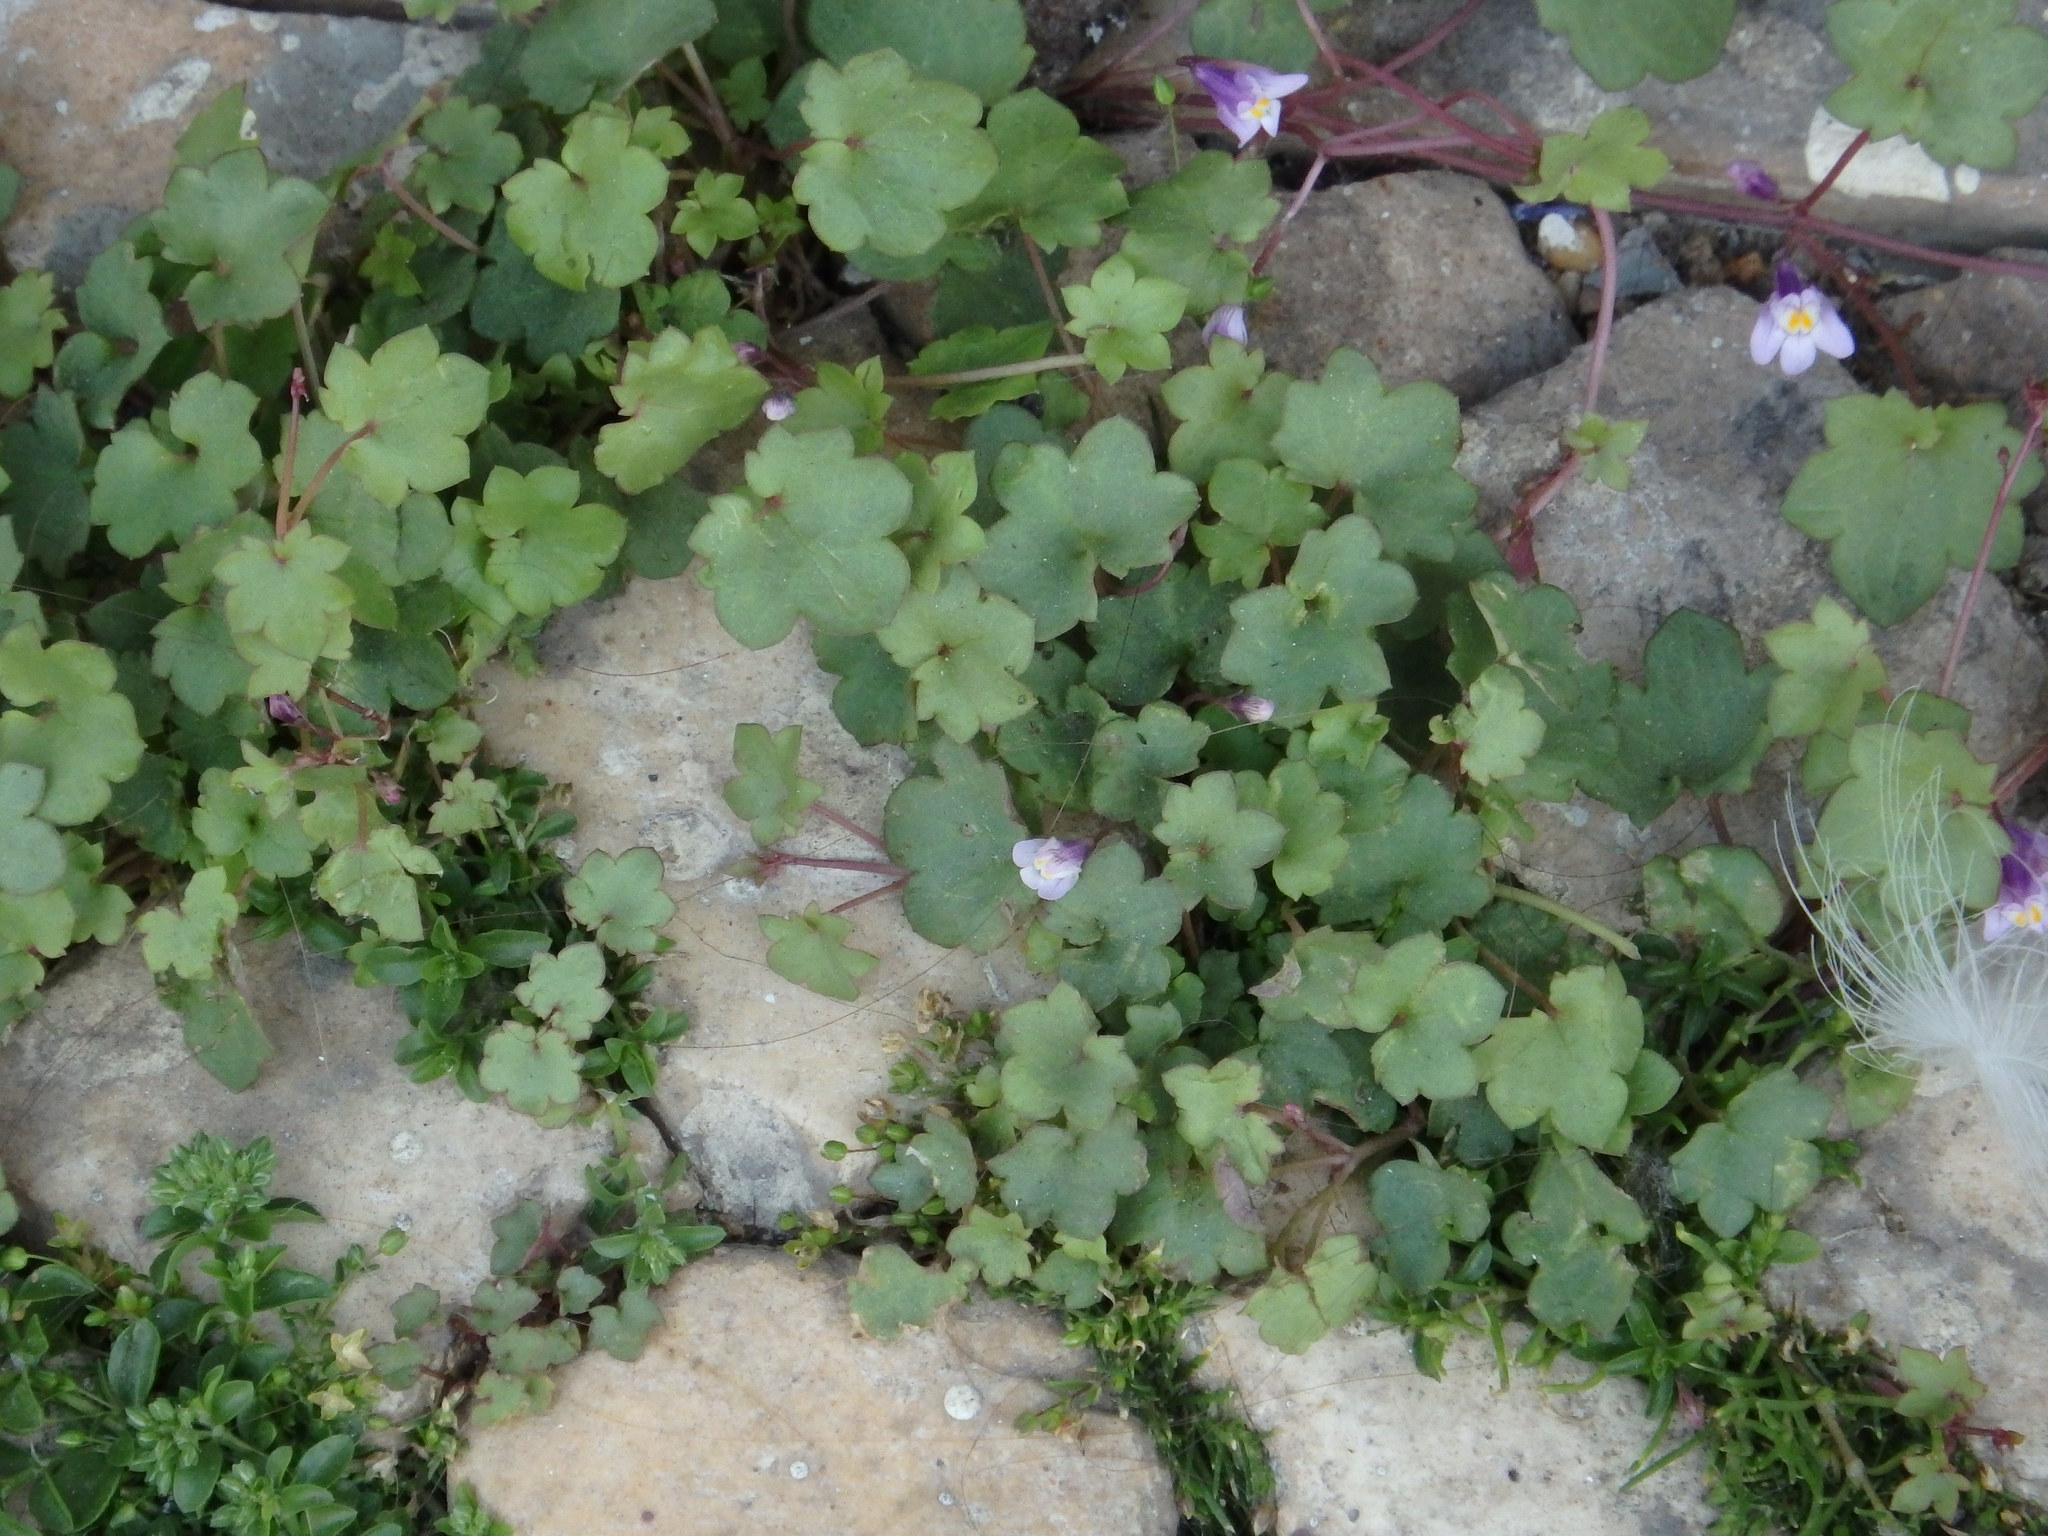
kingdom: Plantae
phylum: Tracheophyta
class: Magnoliopsida
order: Lamiales
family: Plantaginaceae
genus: Cymbalaria
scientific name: Cymbalaria muralis
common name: Ivy-leaved toadflax
